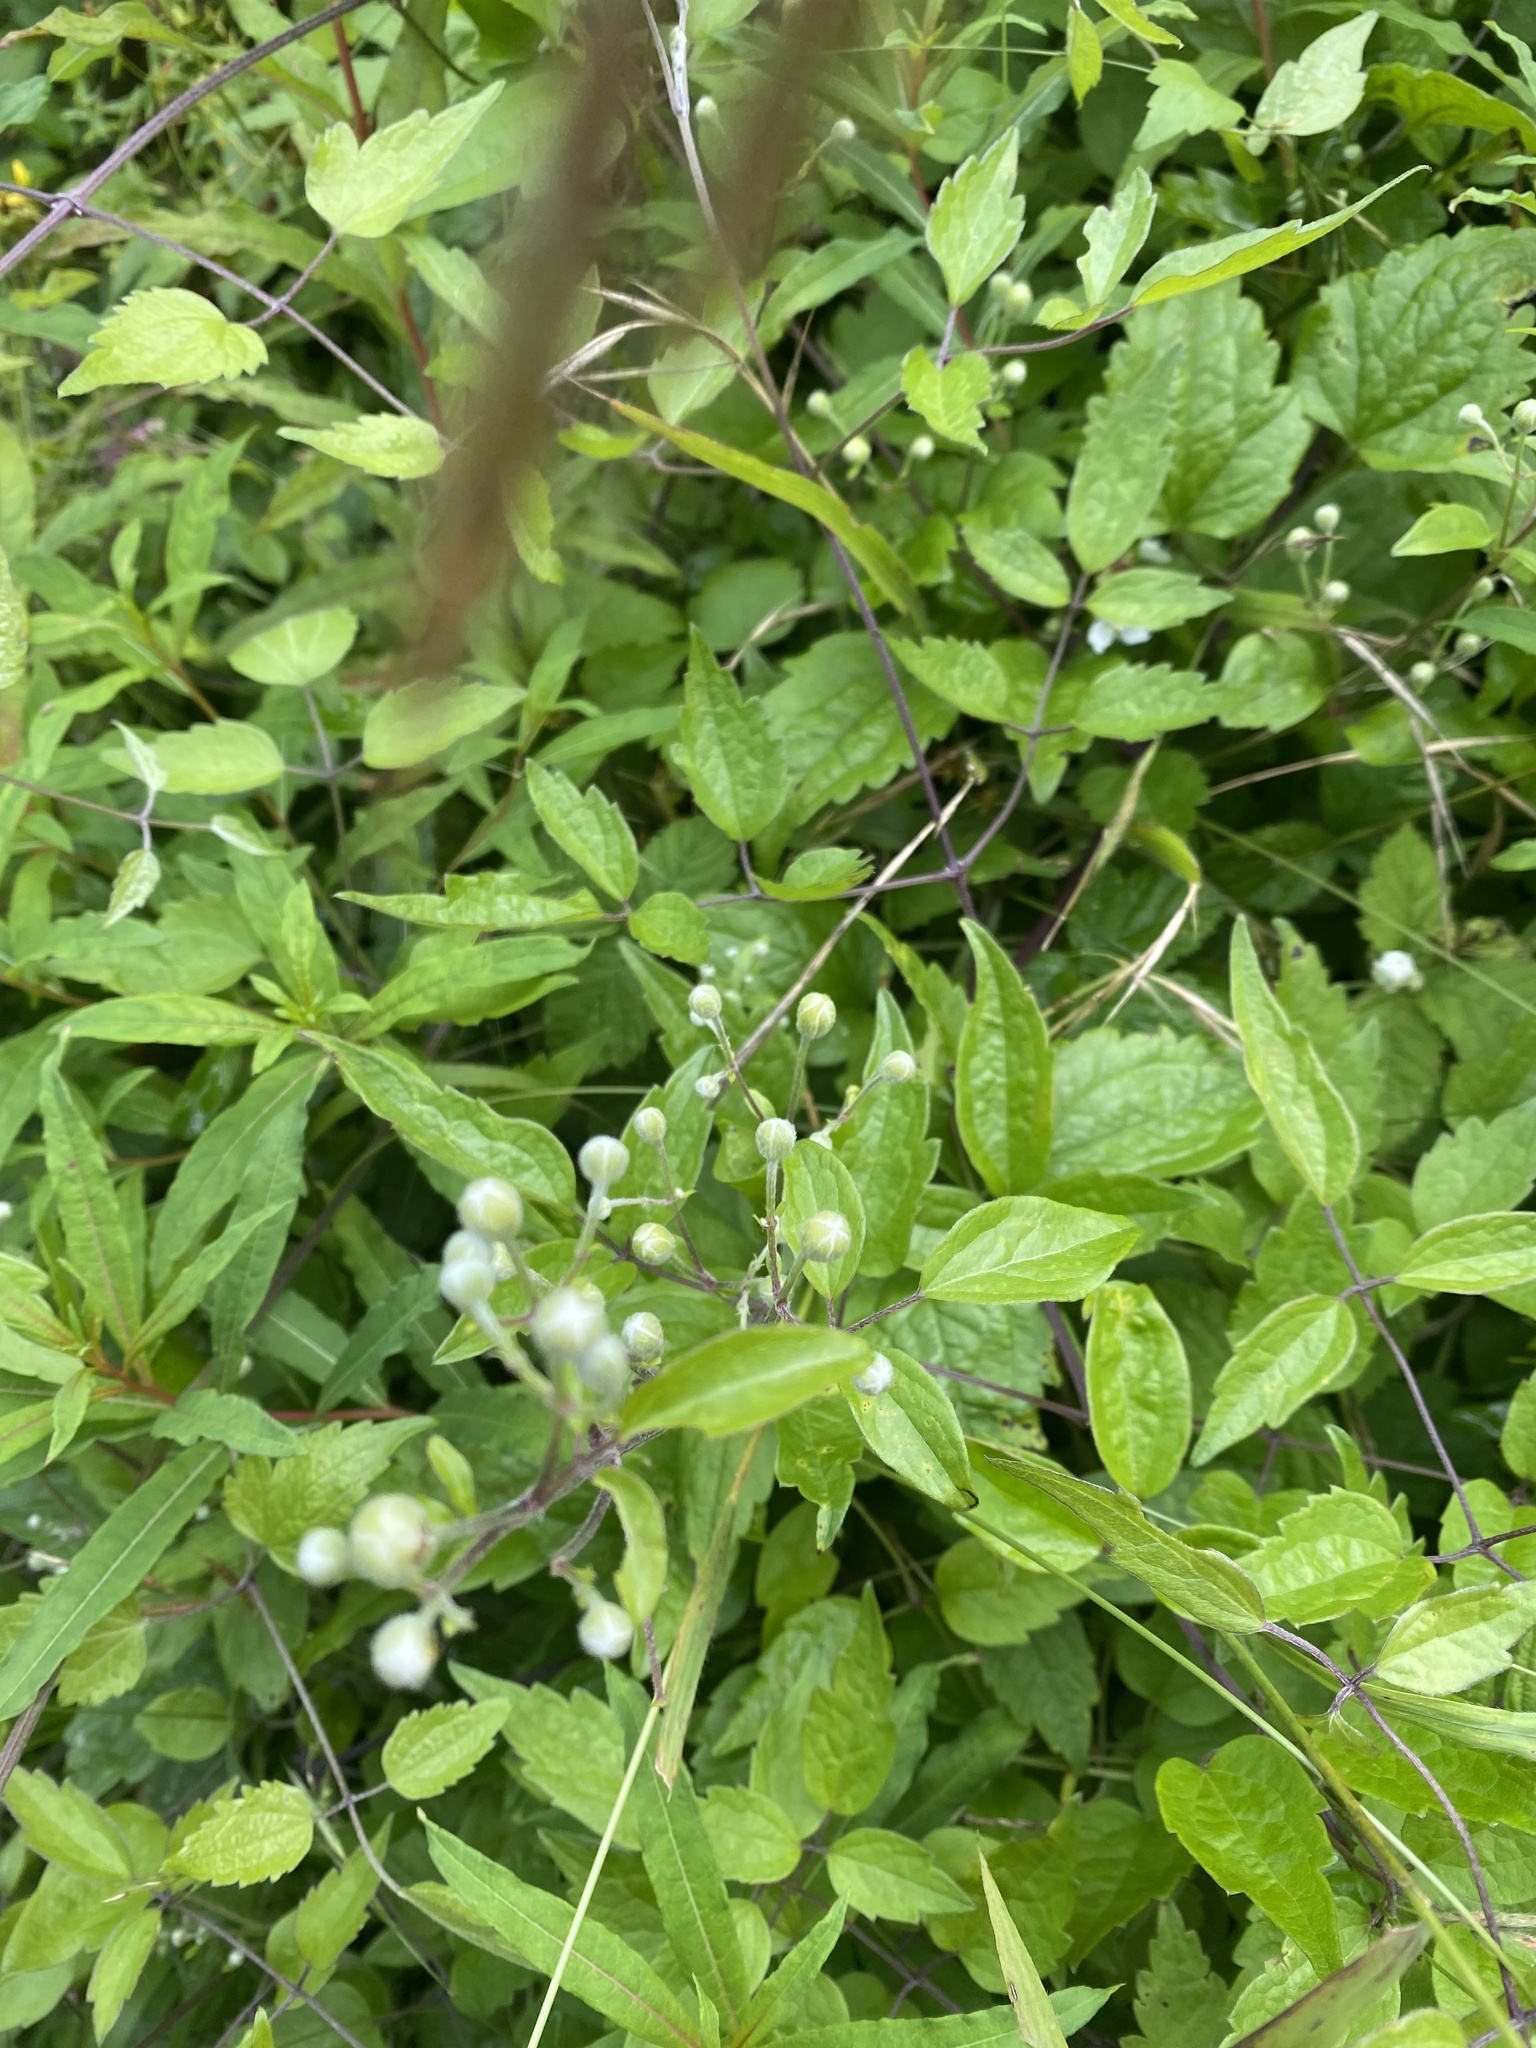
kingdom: Plantae
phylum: Tracheophyta
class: Magnoliopsida
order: Ranunculales
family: Ranunculaceae
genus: Clematis
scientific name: Clematis vitalba
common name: Evergreen clematis
